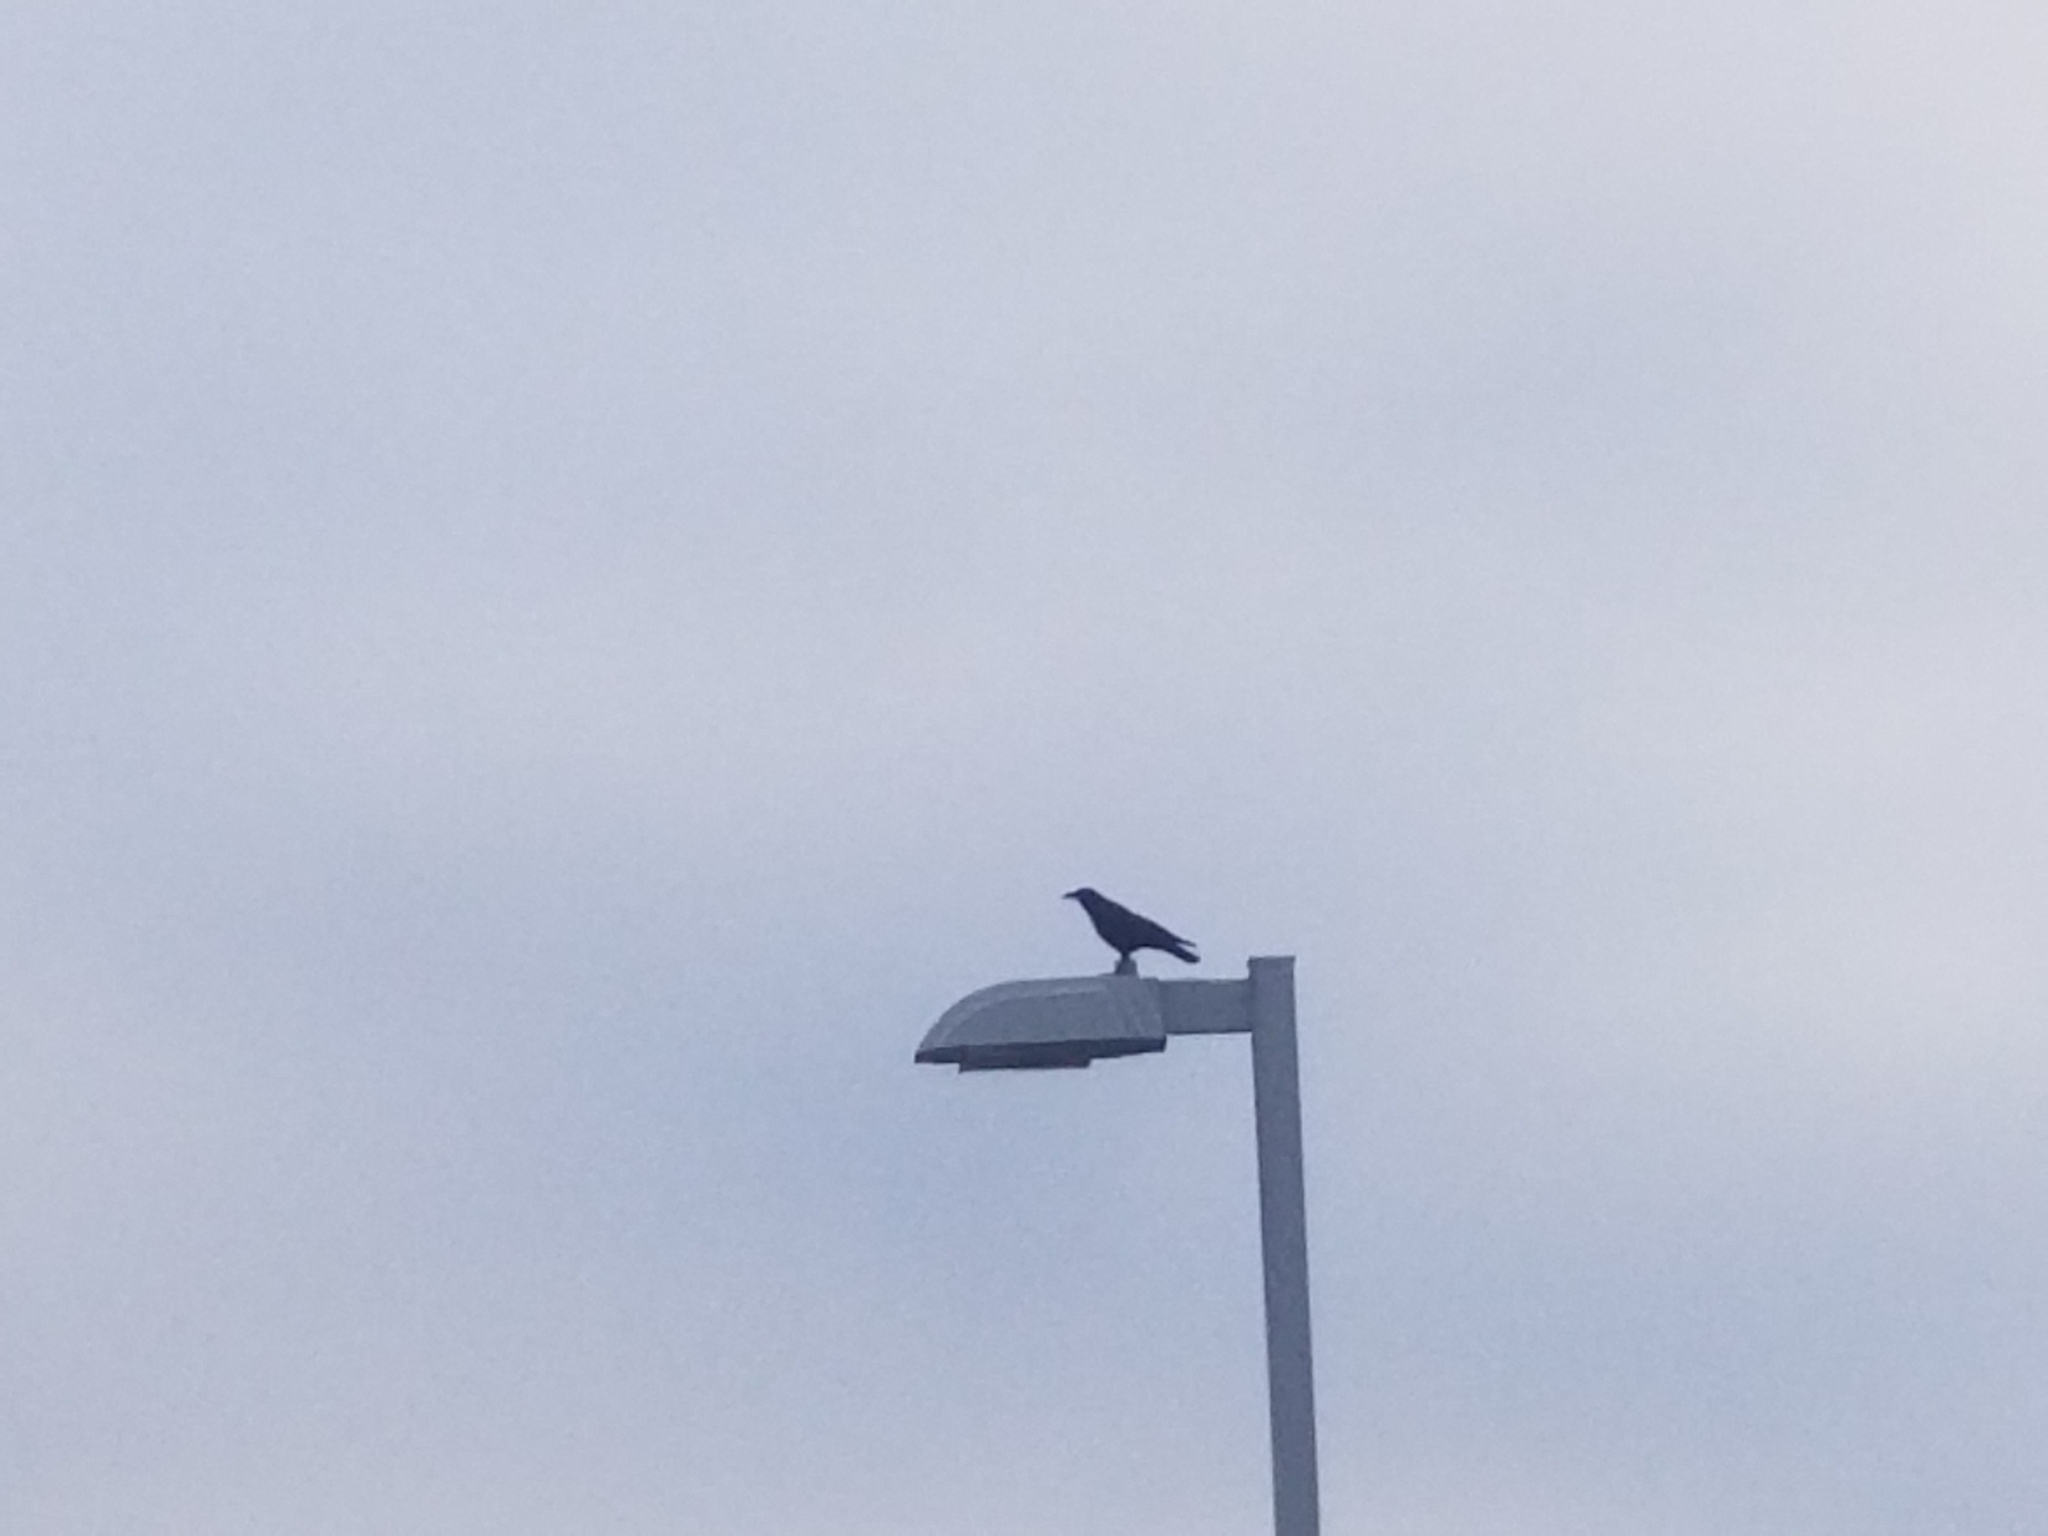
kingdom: Animalia
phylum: Chordata
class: Aves
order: Passeriformes
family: Corvidae
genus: Corvus
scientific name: Corvus brachyrhynchos
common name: American crow
